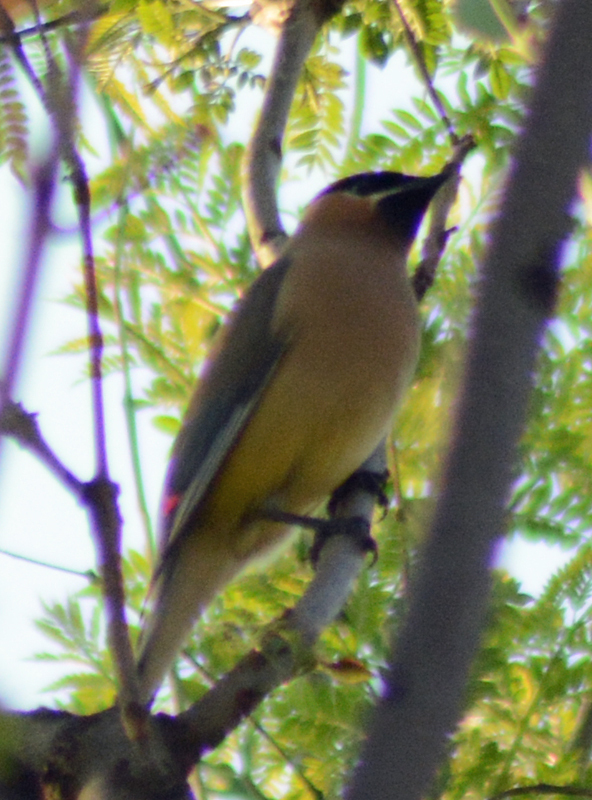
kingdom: Animalia
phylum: Chordata
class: Aves
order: Passeriformes
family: Bombycillidae
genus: Bombycilla
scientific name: Bombycilla cedrorum
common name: Cedar waxwing
